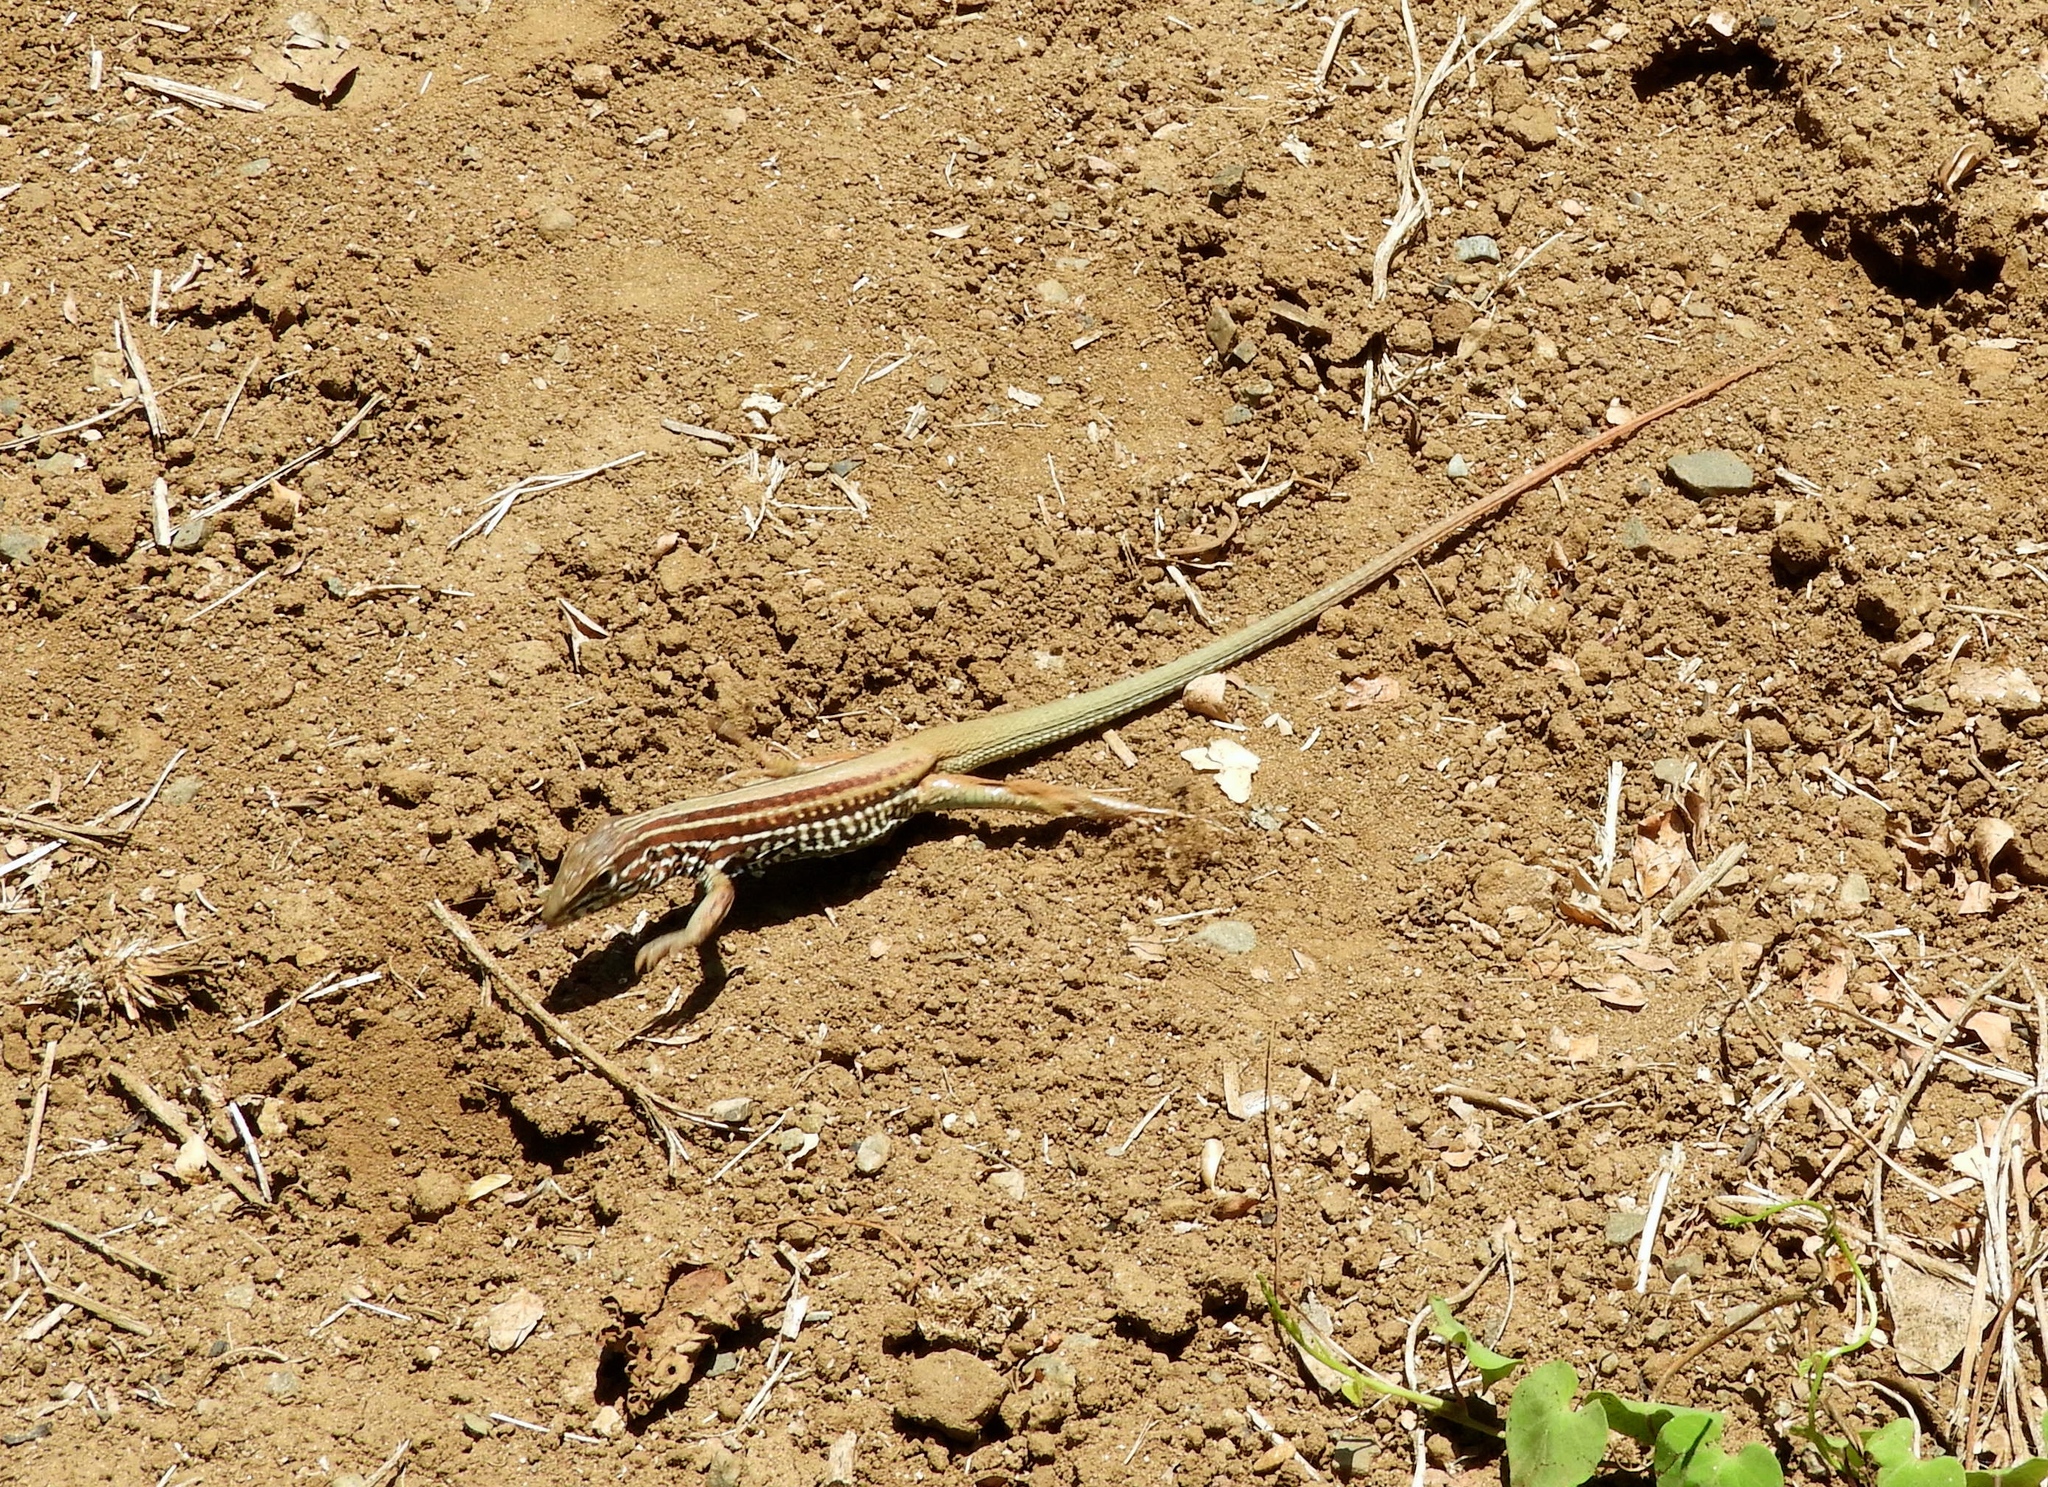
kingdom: Animalia
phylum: Chordata
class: Squamata
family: Teiidae
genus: Aspidoscelis
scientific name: Aspidoscelis costatus
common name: Western mexico whiptail
